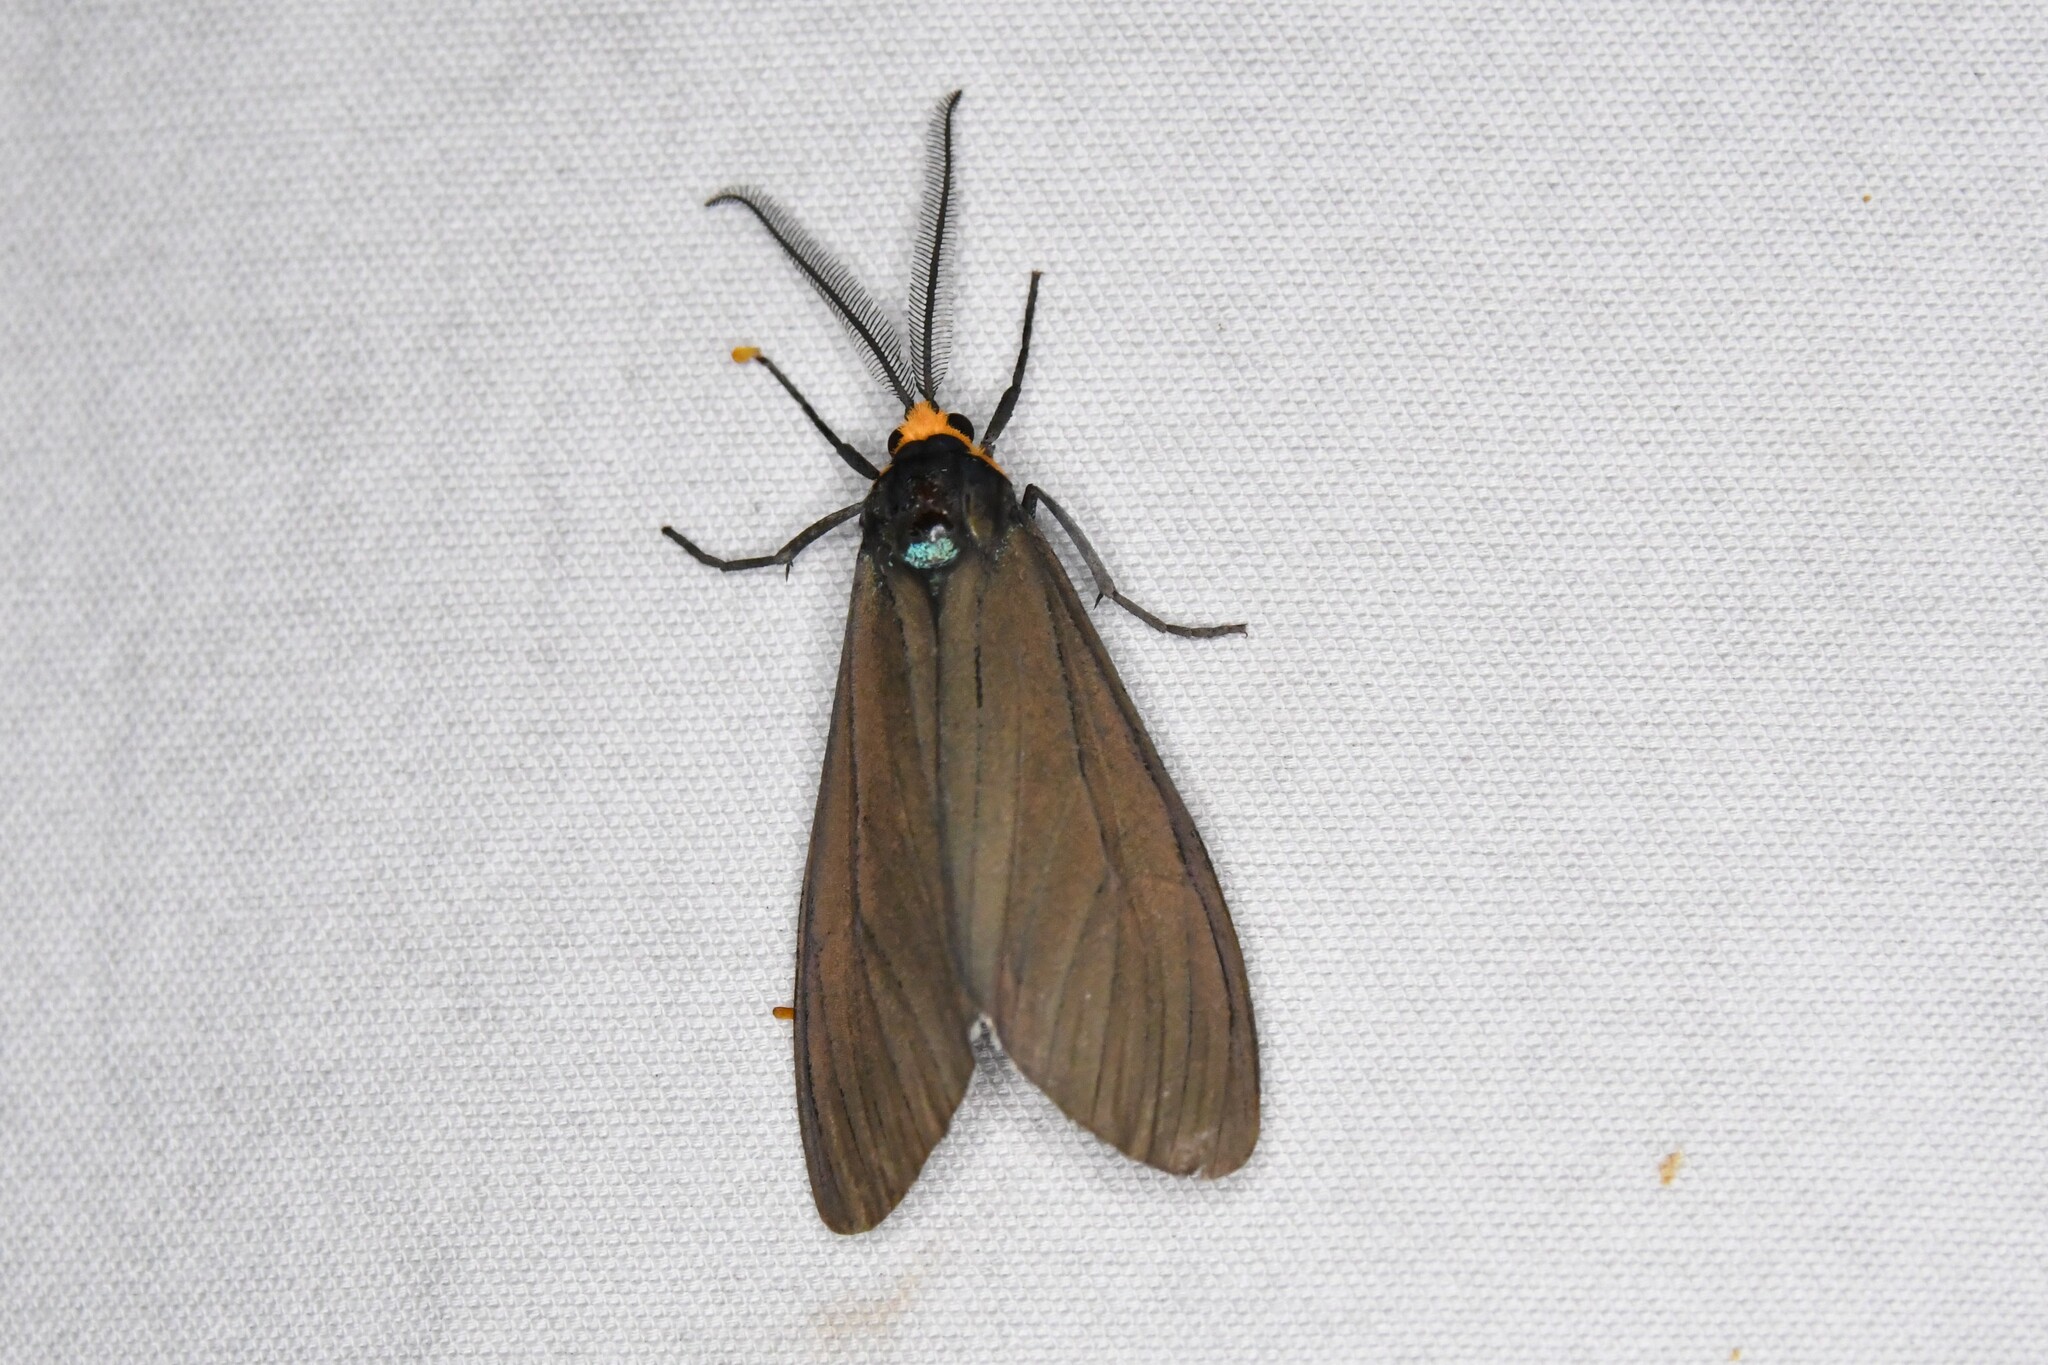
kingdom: Animalia
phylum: Arthropoda
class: Insecta
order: Lepidoptera
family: Erebidae
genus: Ctenucha
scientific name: Ctenucha virginica
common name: Virginia ctenucha moth
